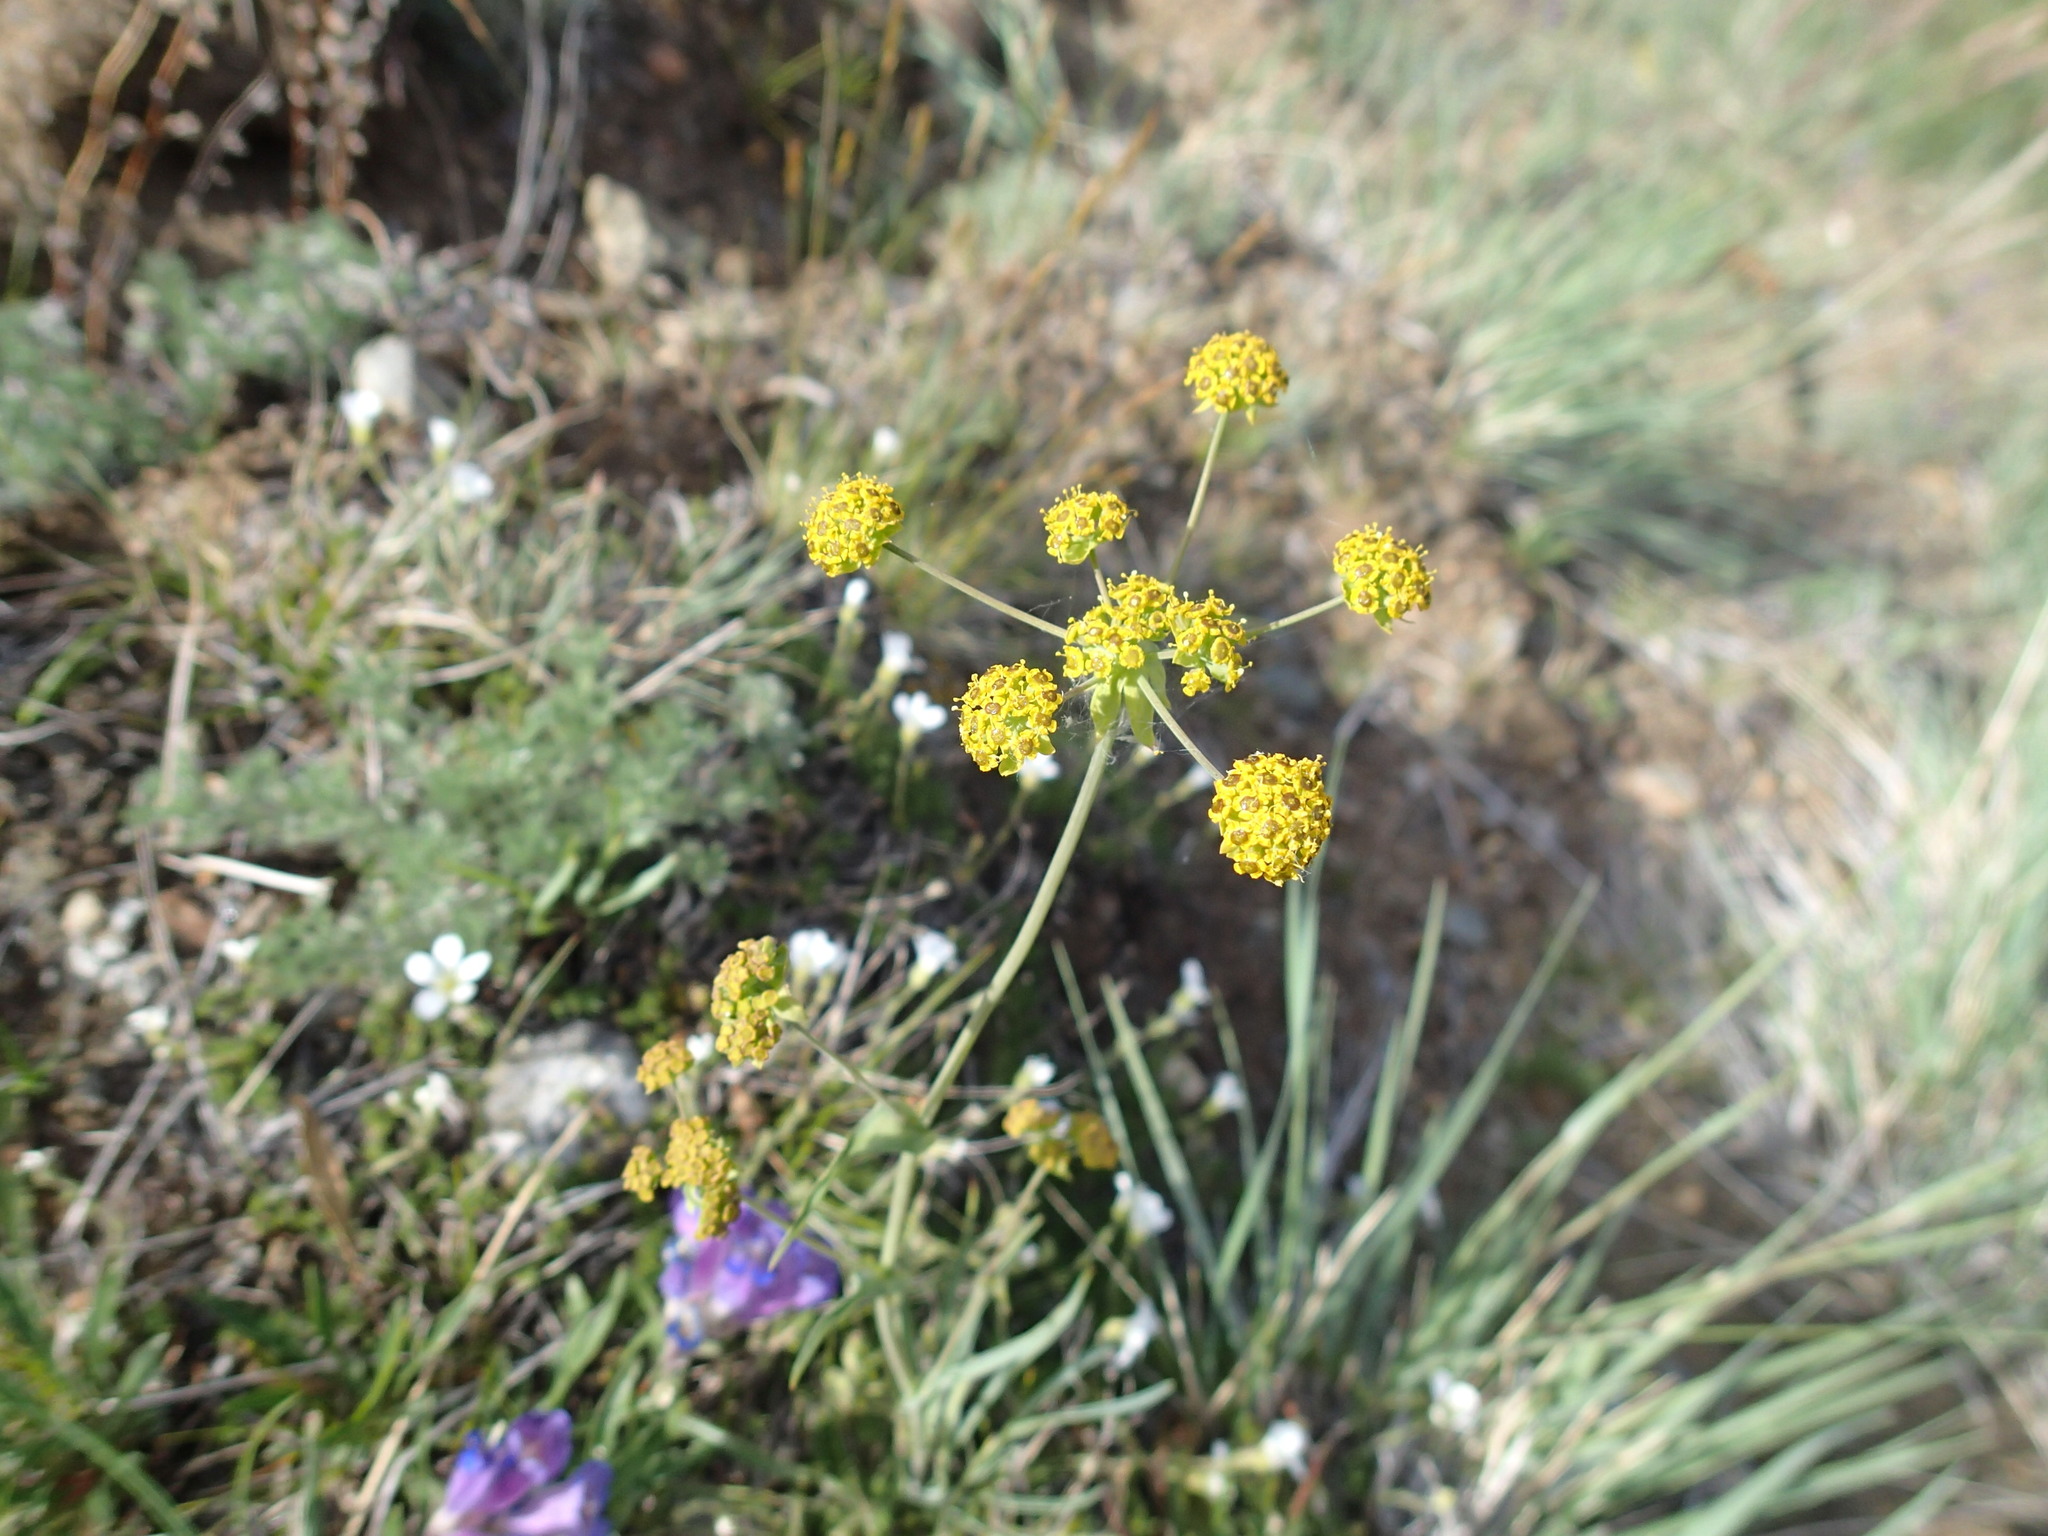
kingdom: Plantae
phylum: Tracheophyta
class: Magnoliopsida
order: Apiales
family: Apiaceae
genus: Bupleurum
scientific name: Bupleurum americanum
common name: American thoroughwax
